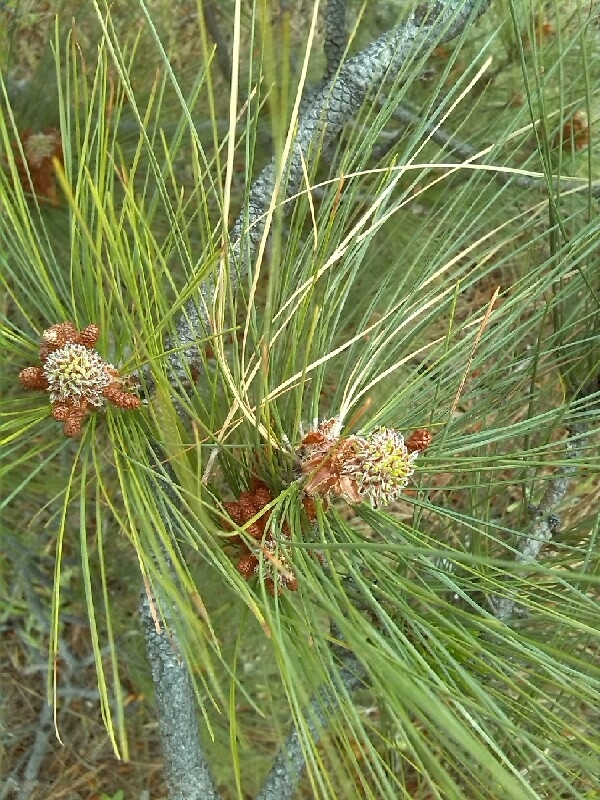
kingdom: Plantae
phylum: Tracheophyta
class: Pinopsida
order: Pinales
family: Pinaceae
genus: Pinus
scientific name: Pinus canariensis
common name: Canary islands pine
